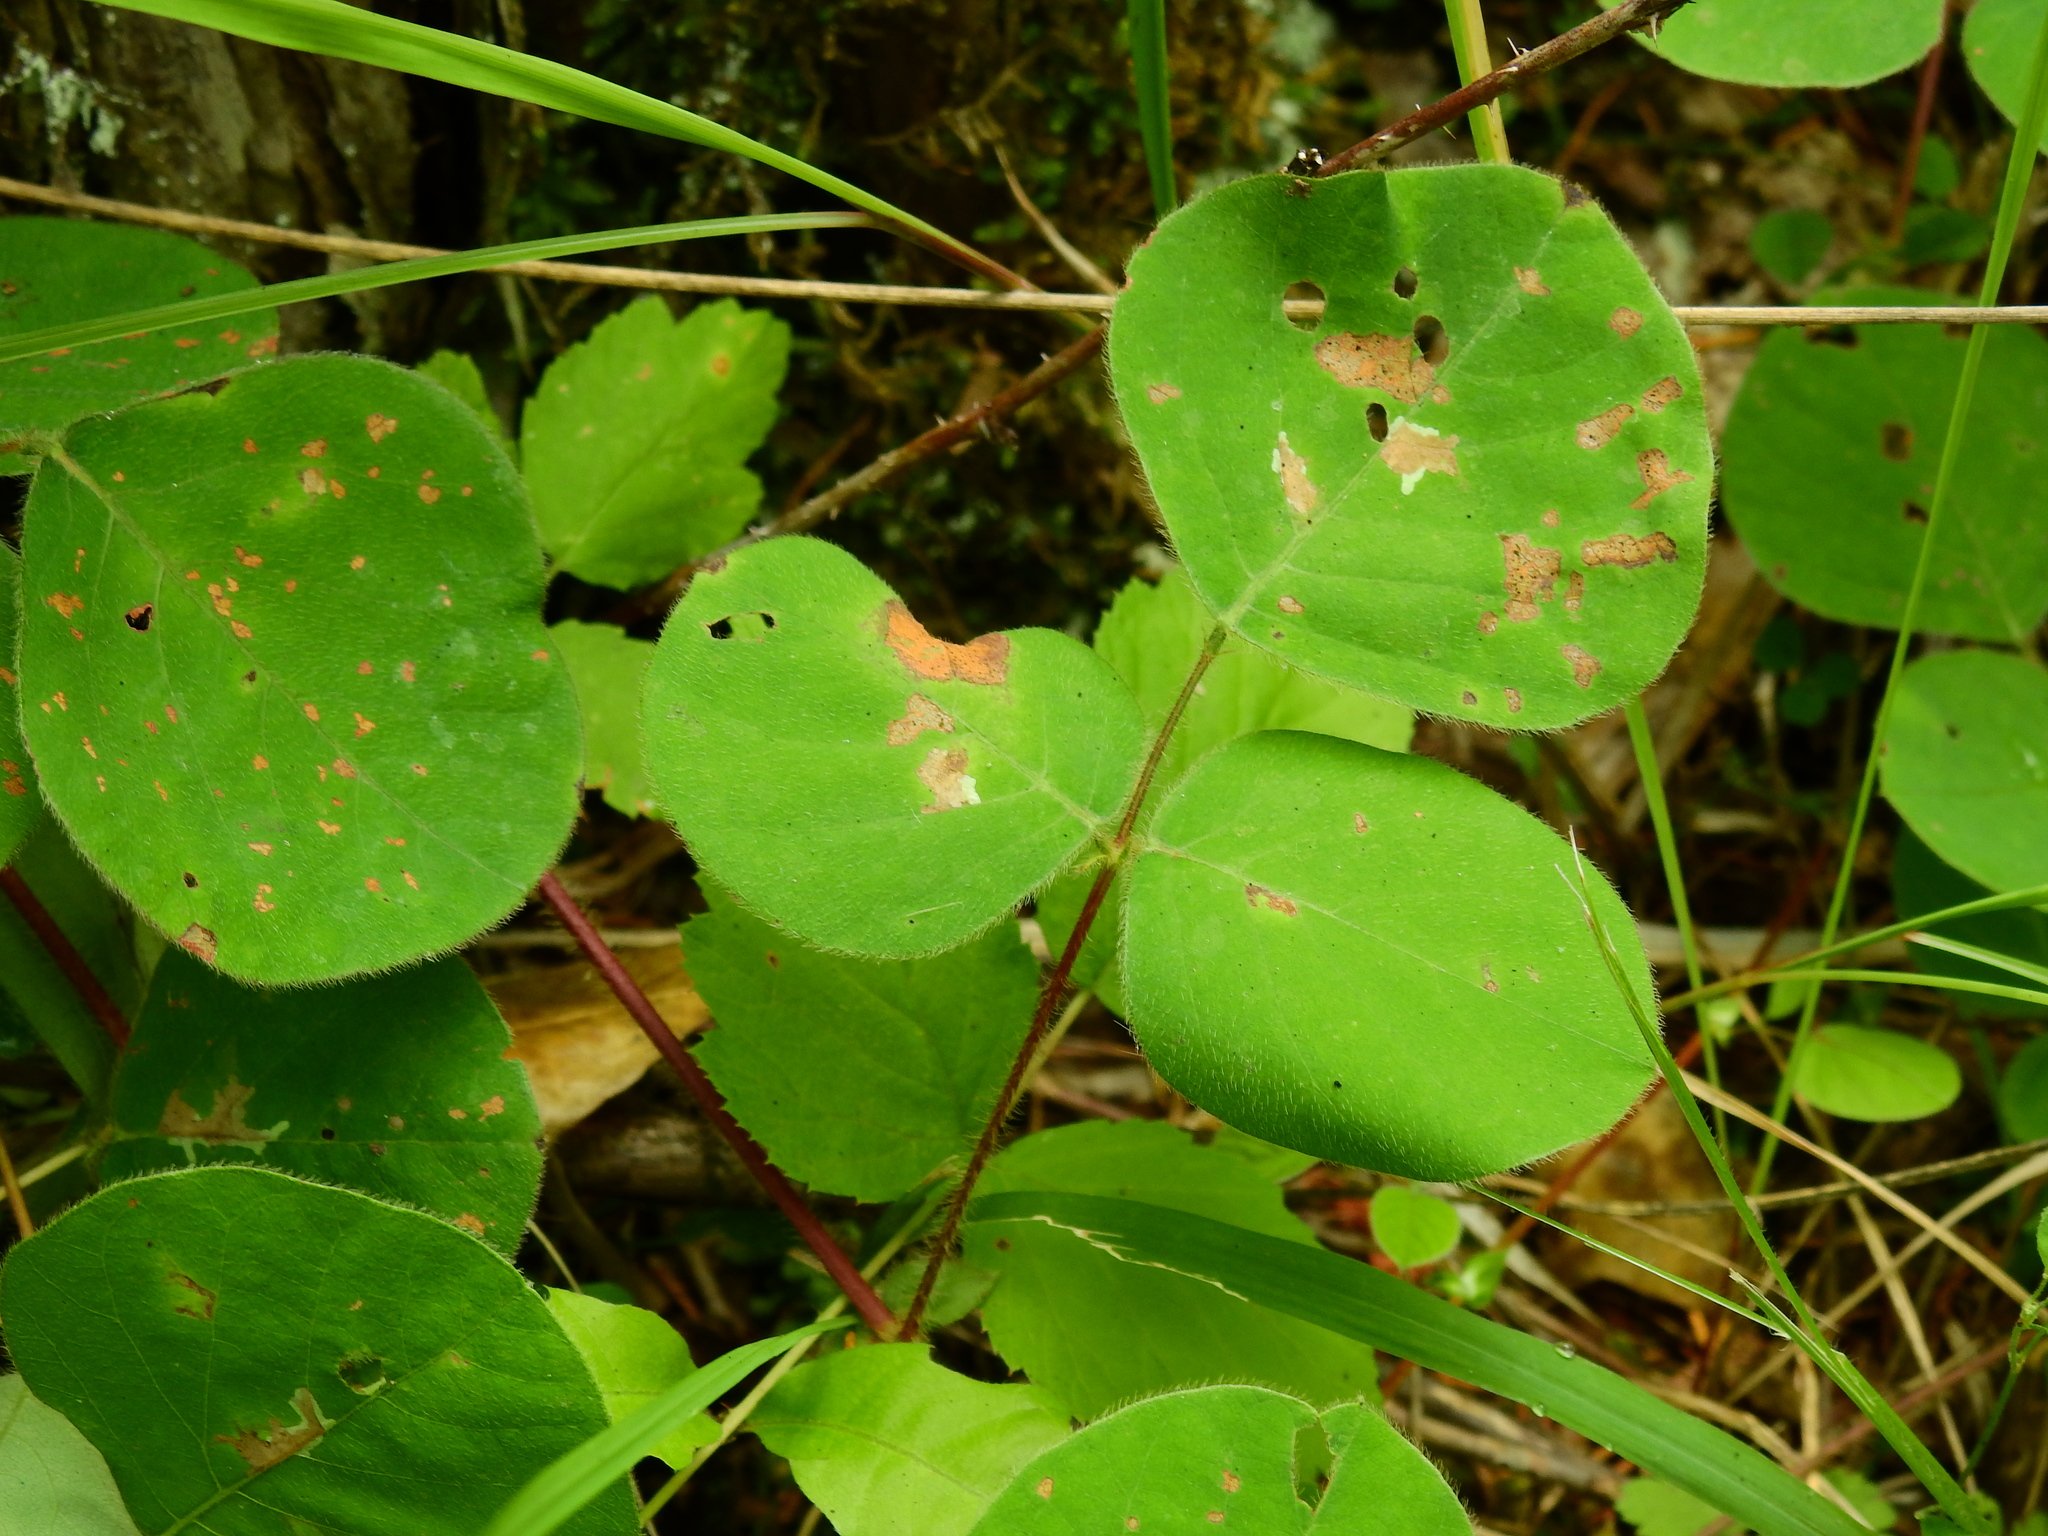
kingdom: Plantae
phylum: Tracheophyta
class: Magnoliopsida
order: Fabales
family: Fabaceae
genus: Desmodium
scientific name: Desmodium rotundifolium
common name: Dollarleaf
